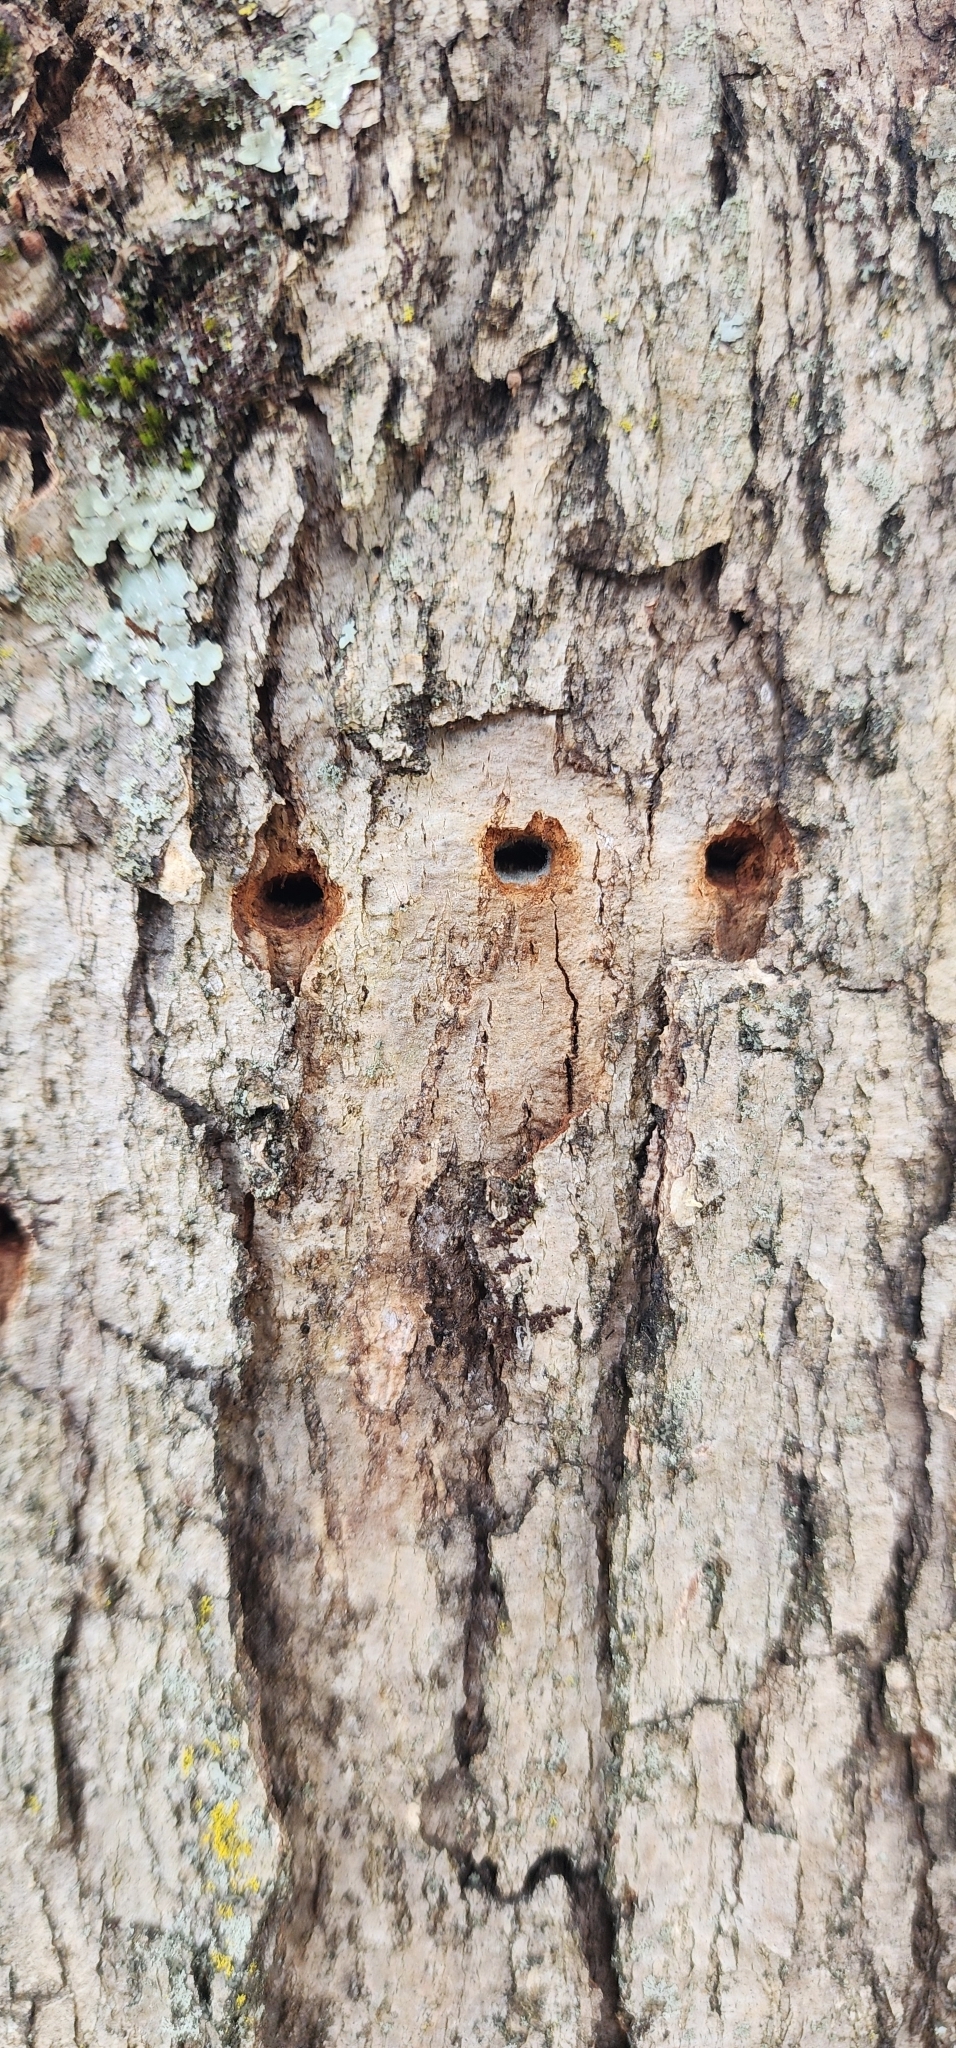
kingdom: Animalia
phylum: Chordata
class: Aves
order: Piciformes
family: Picidae
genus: Sphyrapicus
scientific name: Sphyrapicus varius
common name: Yellow-bellied sapsucker
